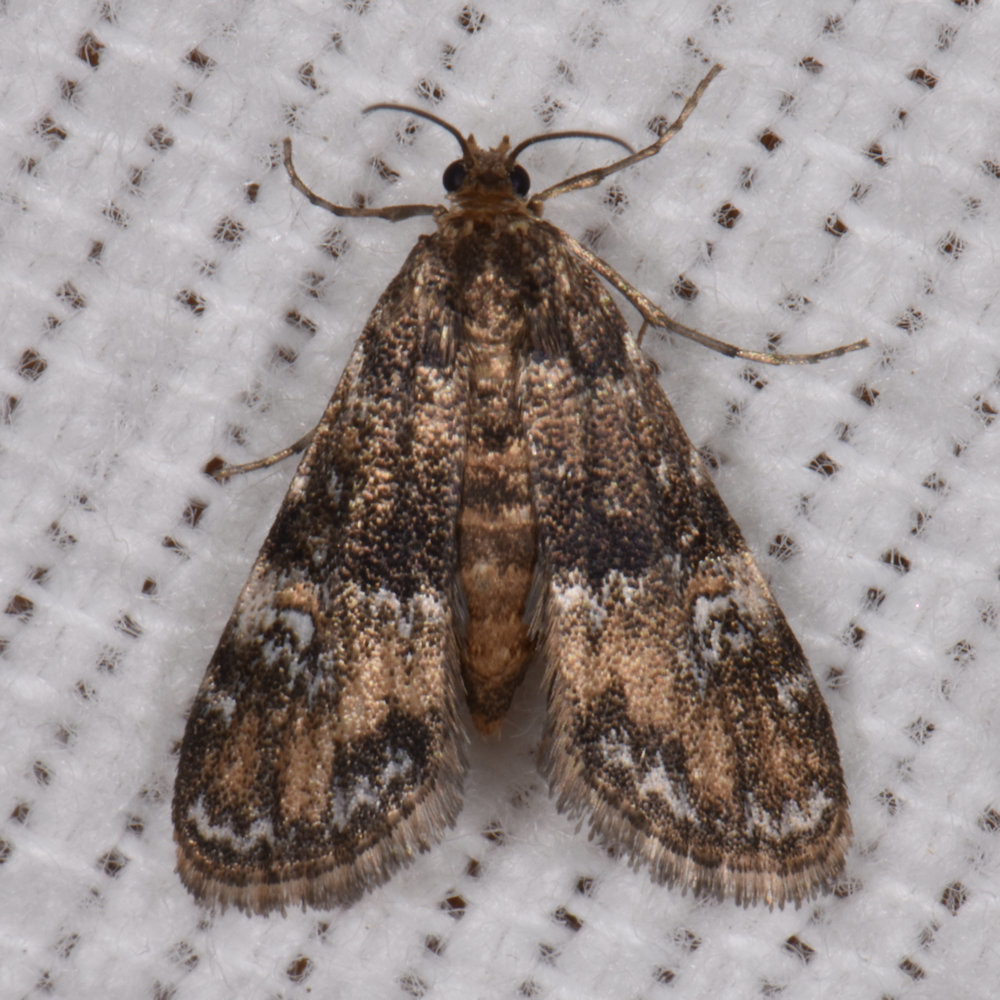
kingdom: Animalia
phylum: Arthropoda
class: Insecta
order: Lepidoptera
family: Crambidae
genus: Elophila
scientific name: Elophila obliteralis
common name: Waterlily leafcutter moth
